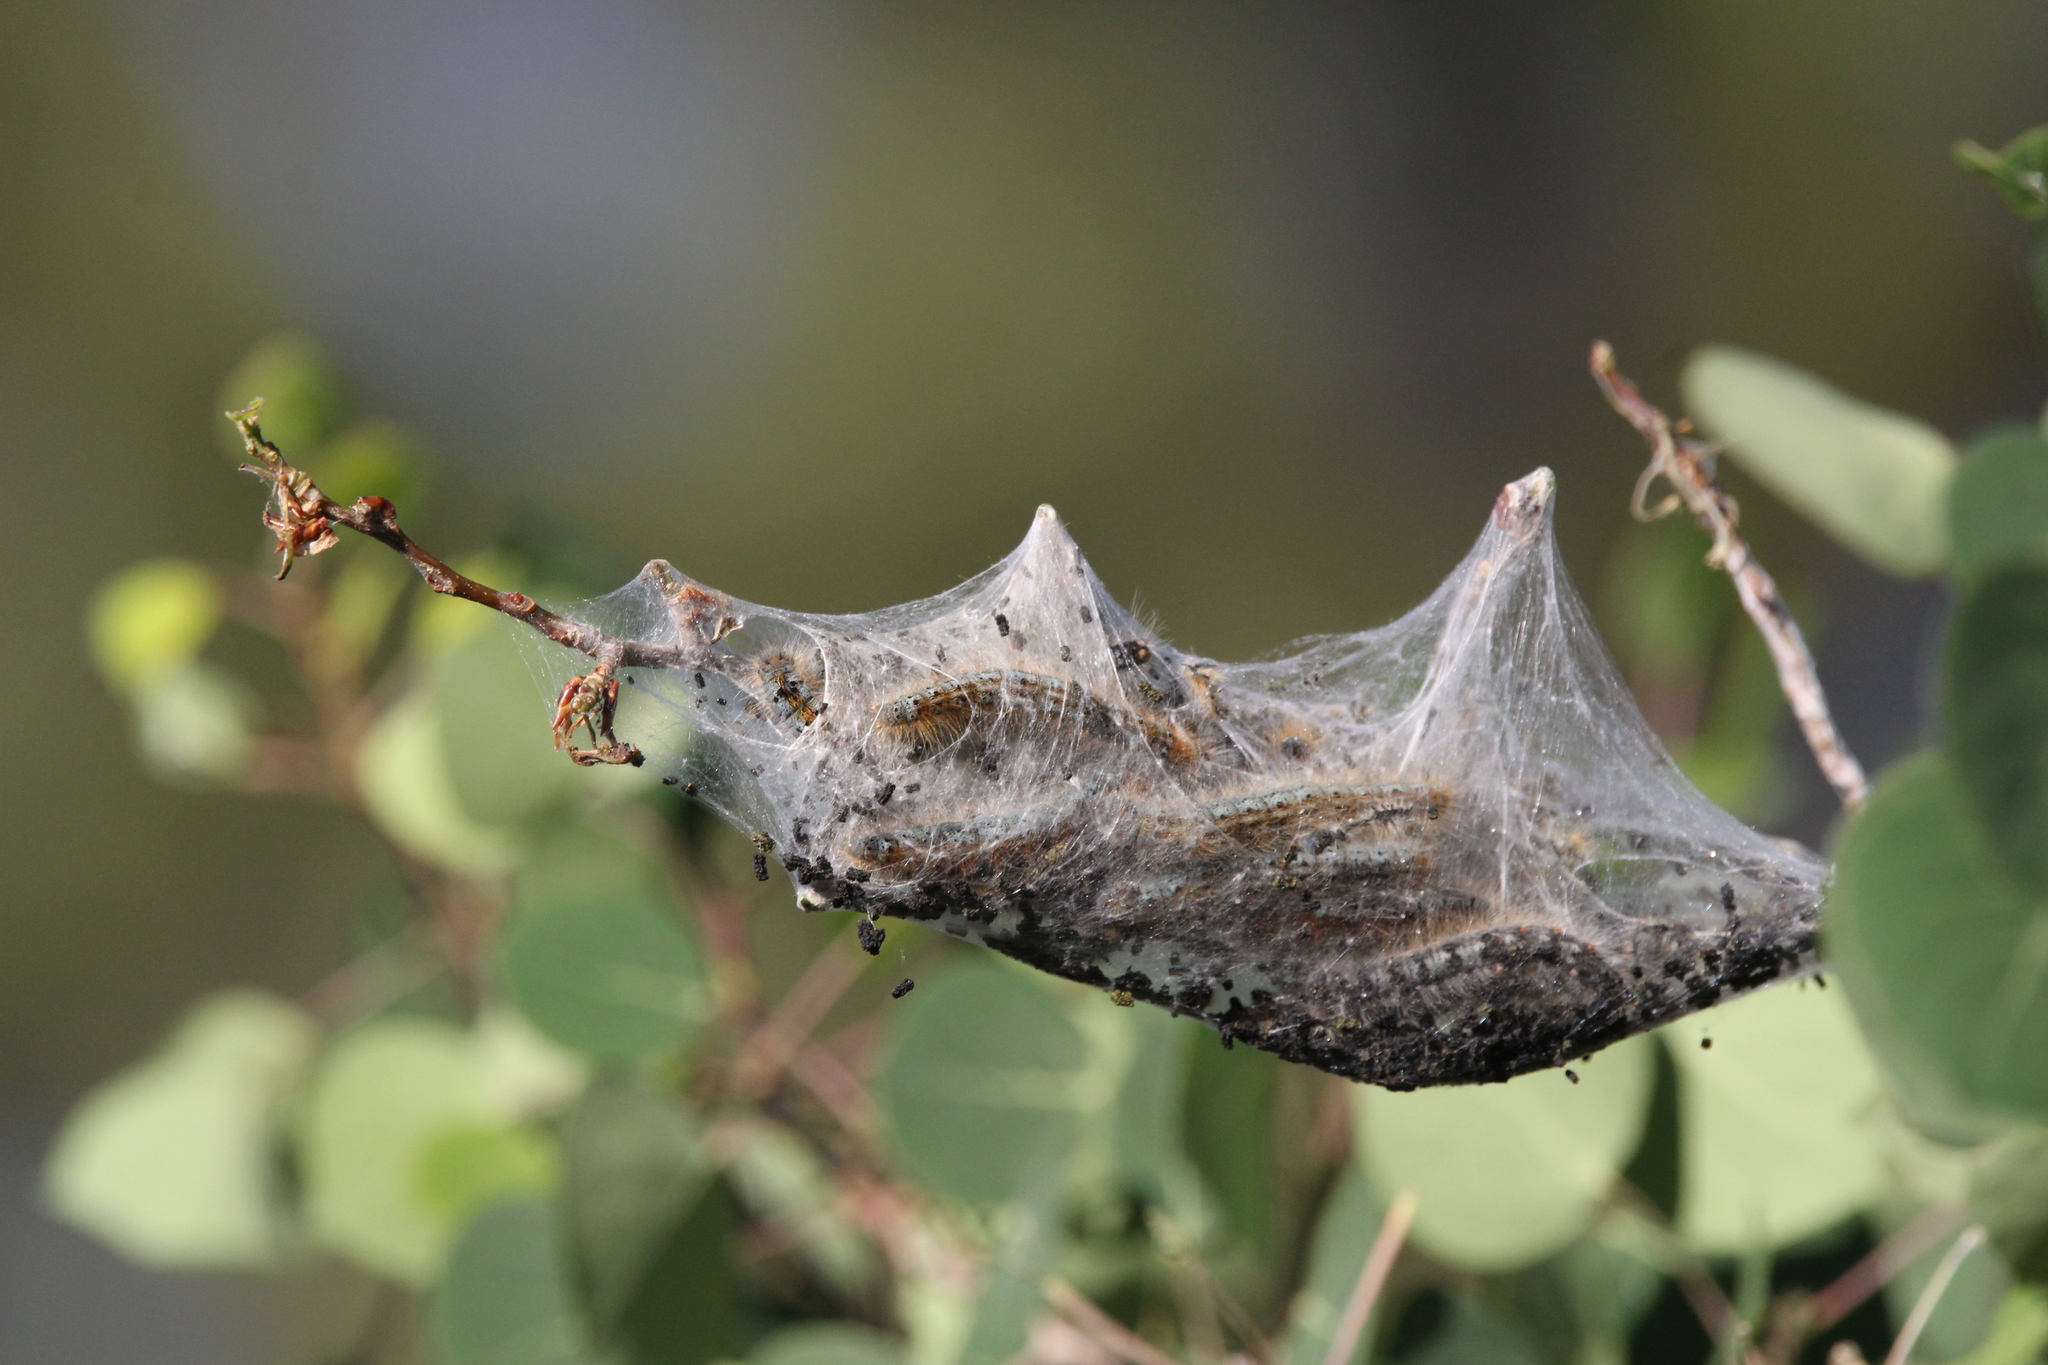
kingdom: Animalia
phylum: Arthropoda
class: Insecta
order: Lepidoptera
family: Lasiocampidae
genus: Malacosoma
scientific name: Malacosoma californica
